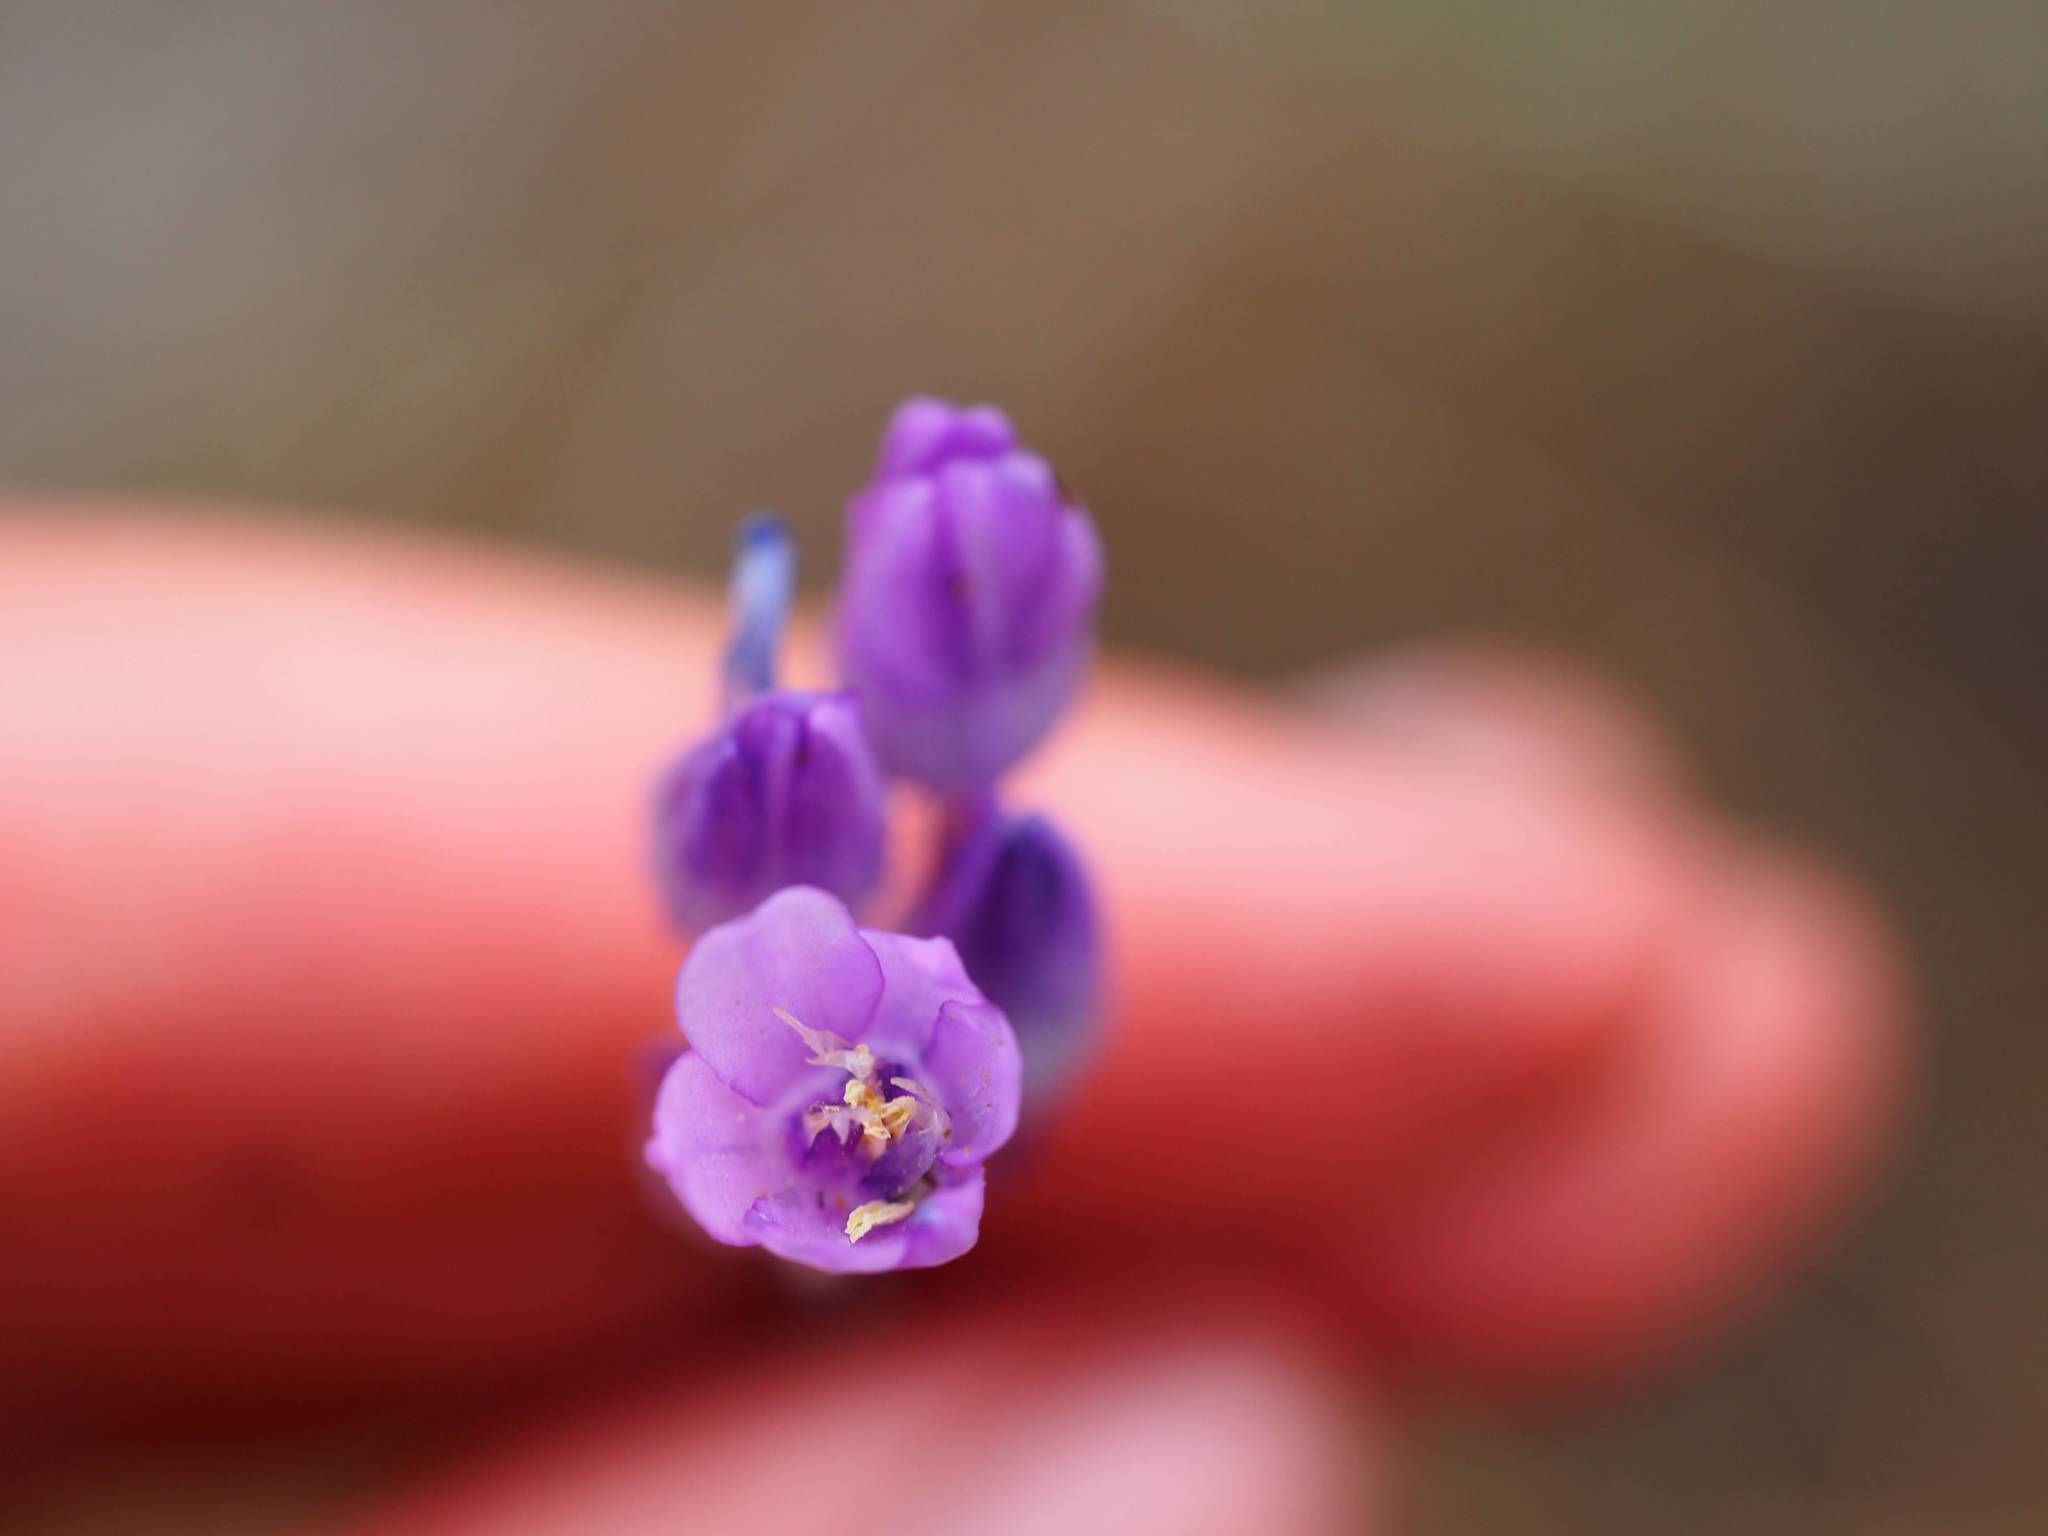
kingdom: Plantae
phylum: Tracheophyta
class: Liliopsida
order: Asparagales
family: Asparagaceae
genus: Dipterostemon
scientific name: Dipterostemon capitatus
